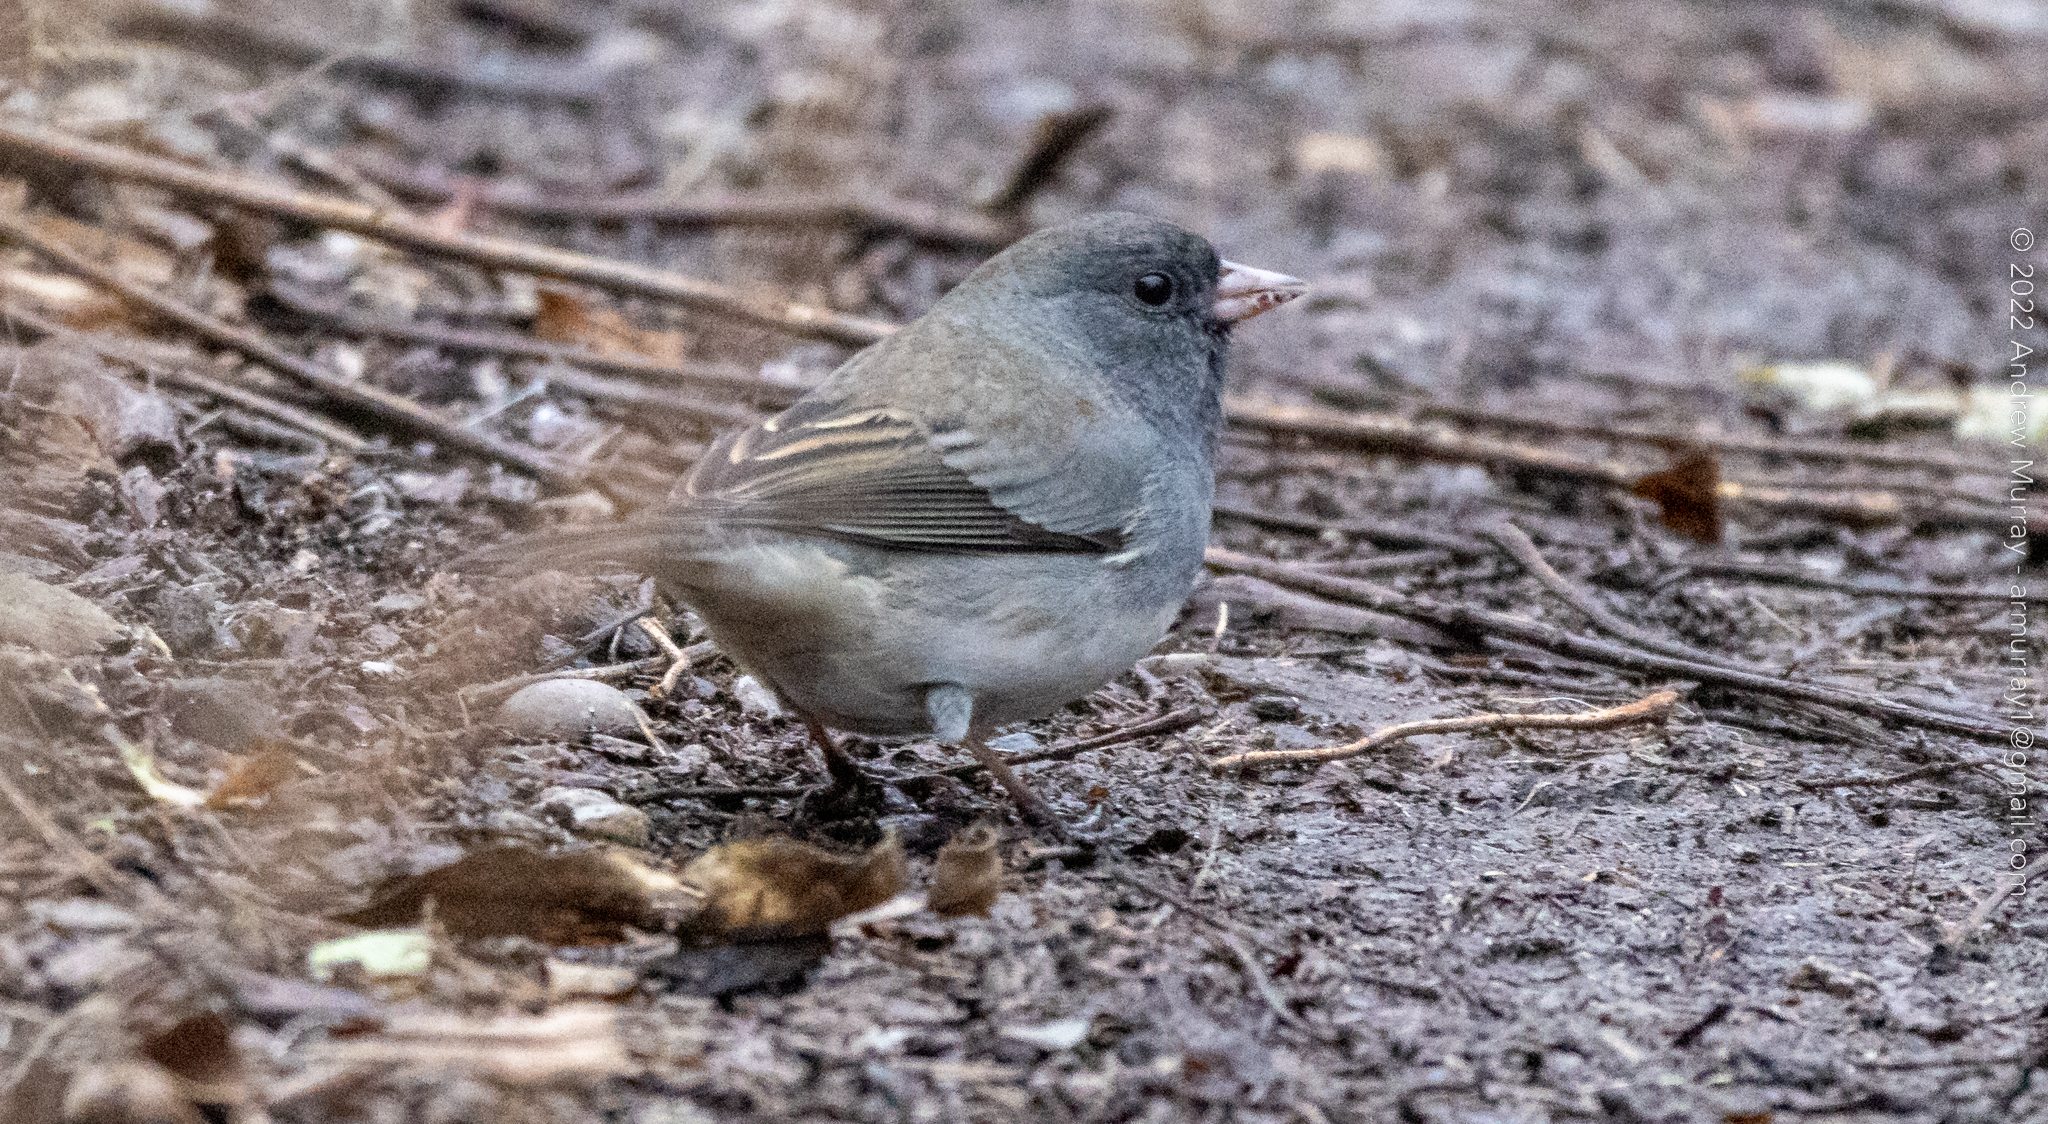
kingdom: Animalia
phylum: Chordata
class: Aves
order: Passeriformes
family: Passerellidae
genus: Junco
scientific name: Junco hyemalis
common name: Dark-eyed junco
